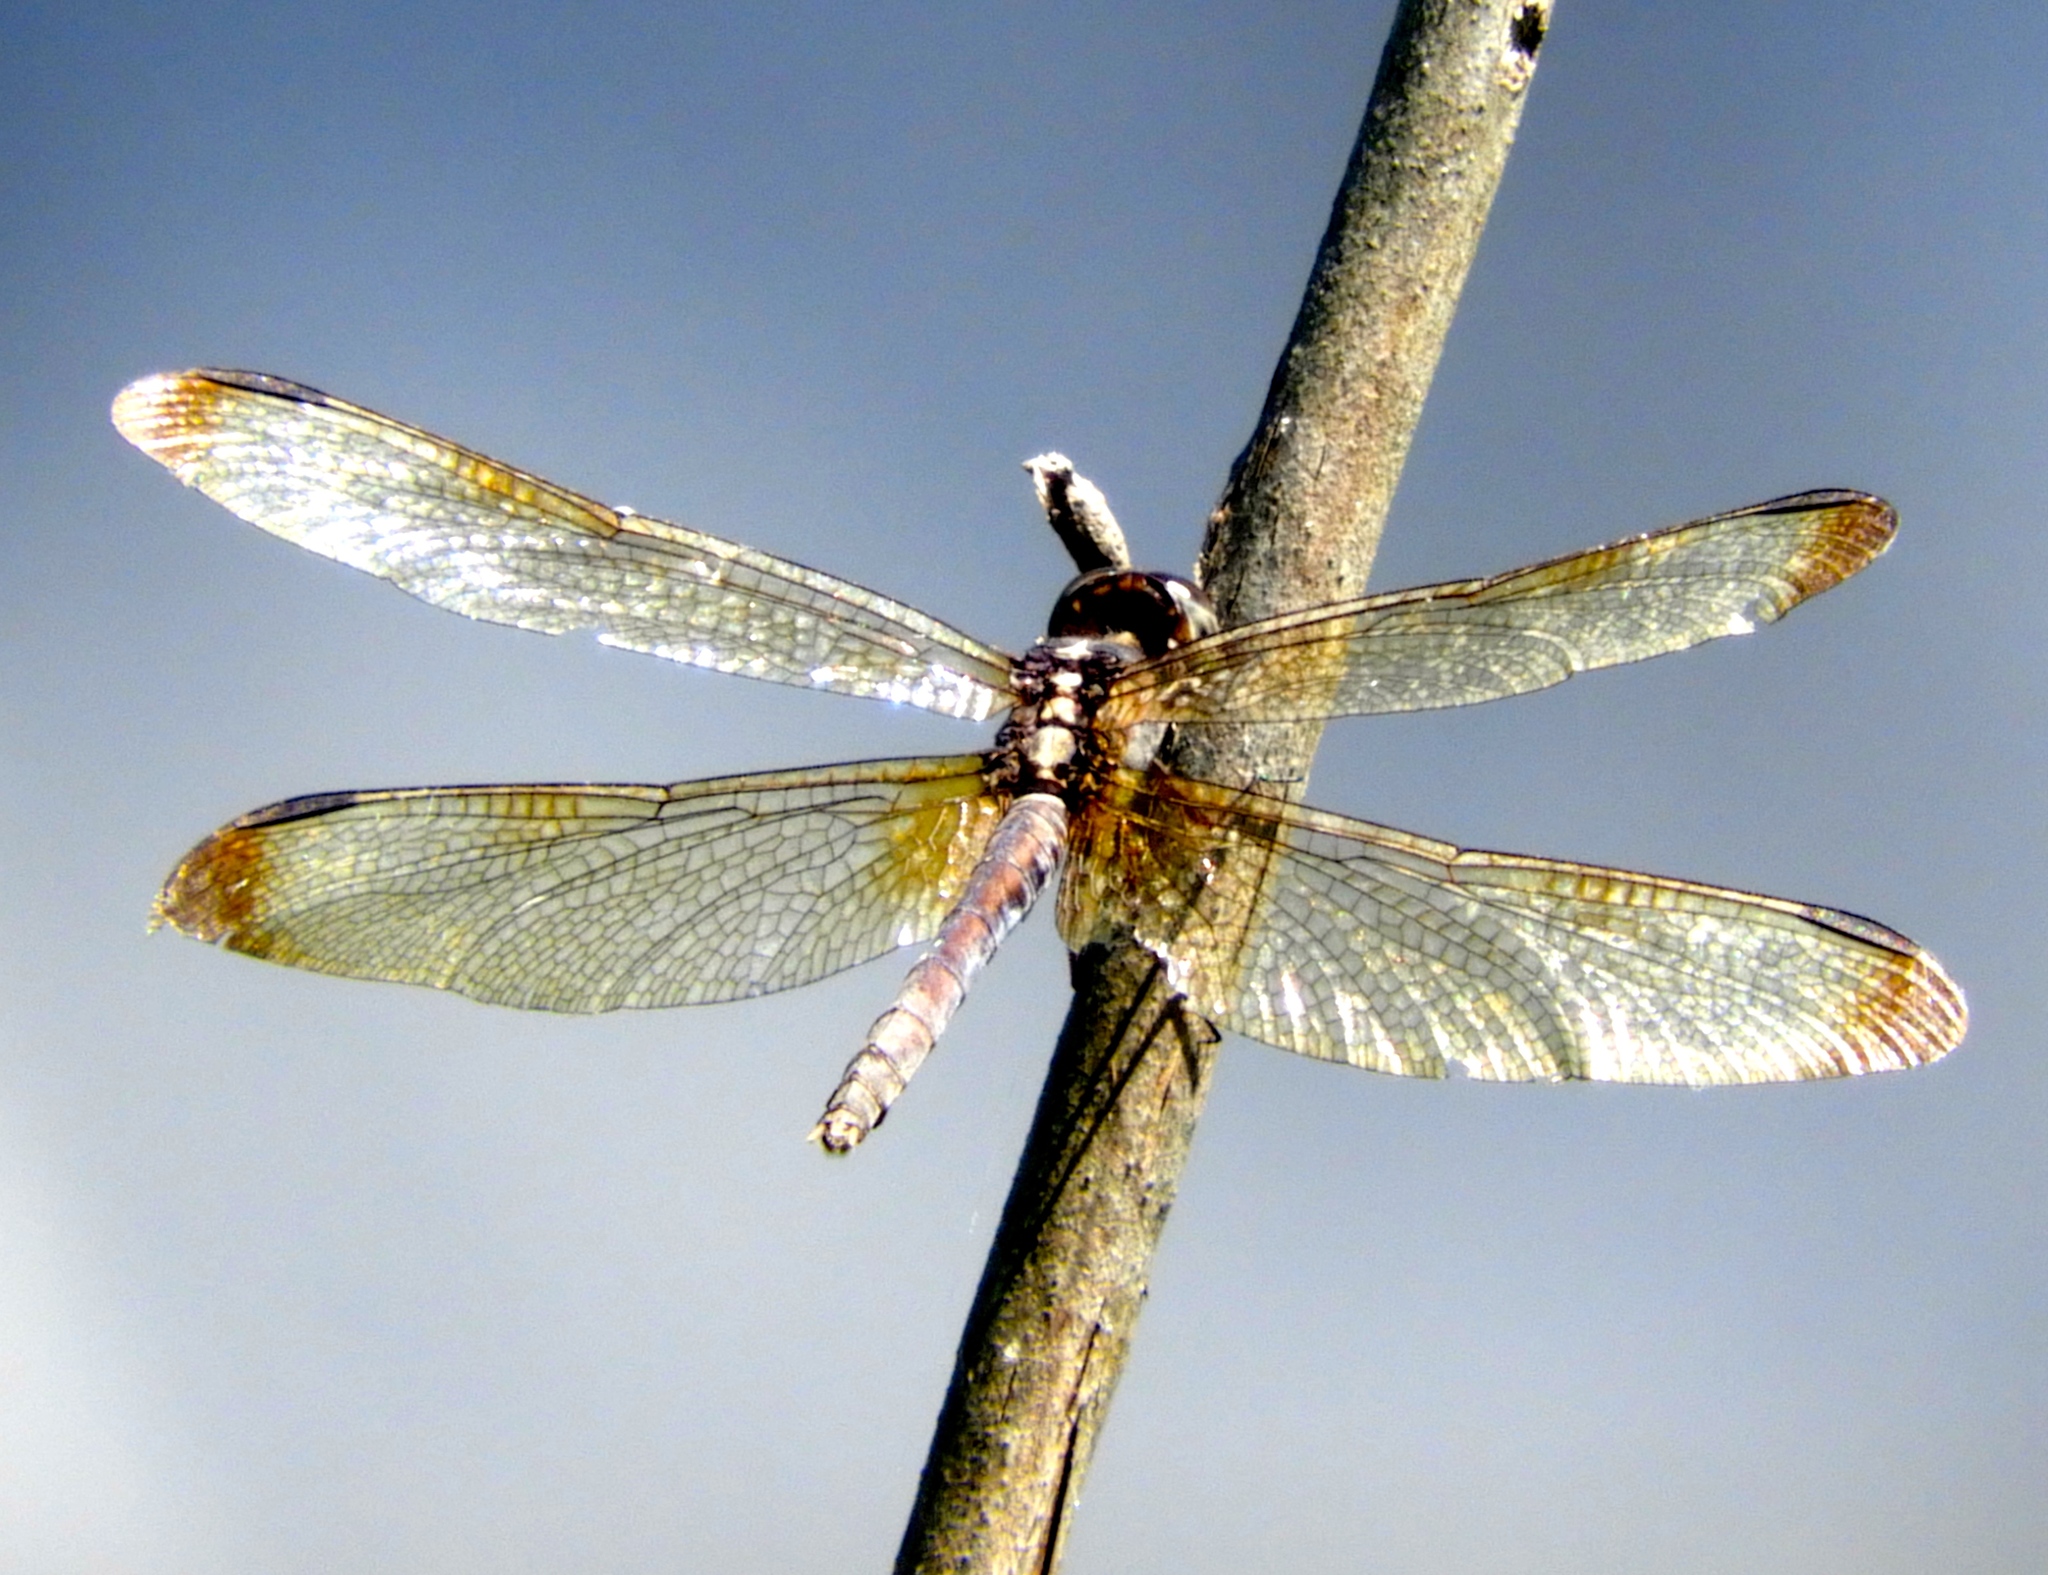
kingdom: Animalia
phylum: Arthropoda
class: Insecta
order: Odonata
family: Libellulidae
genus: Erythrodiplax
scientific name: Erythrodiplax funerea
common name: Black-winged dragonlet
